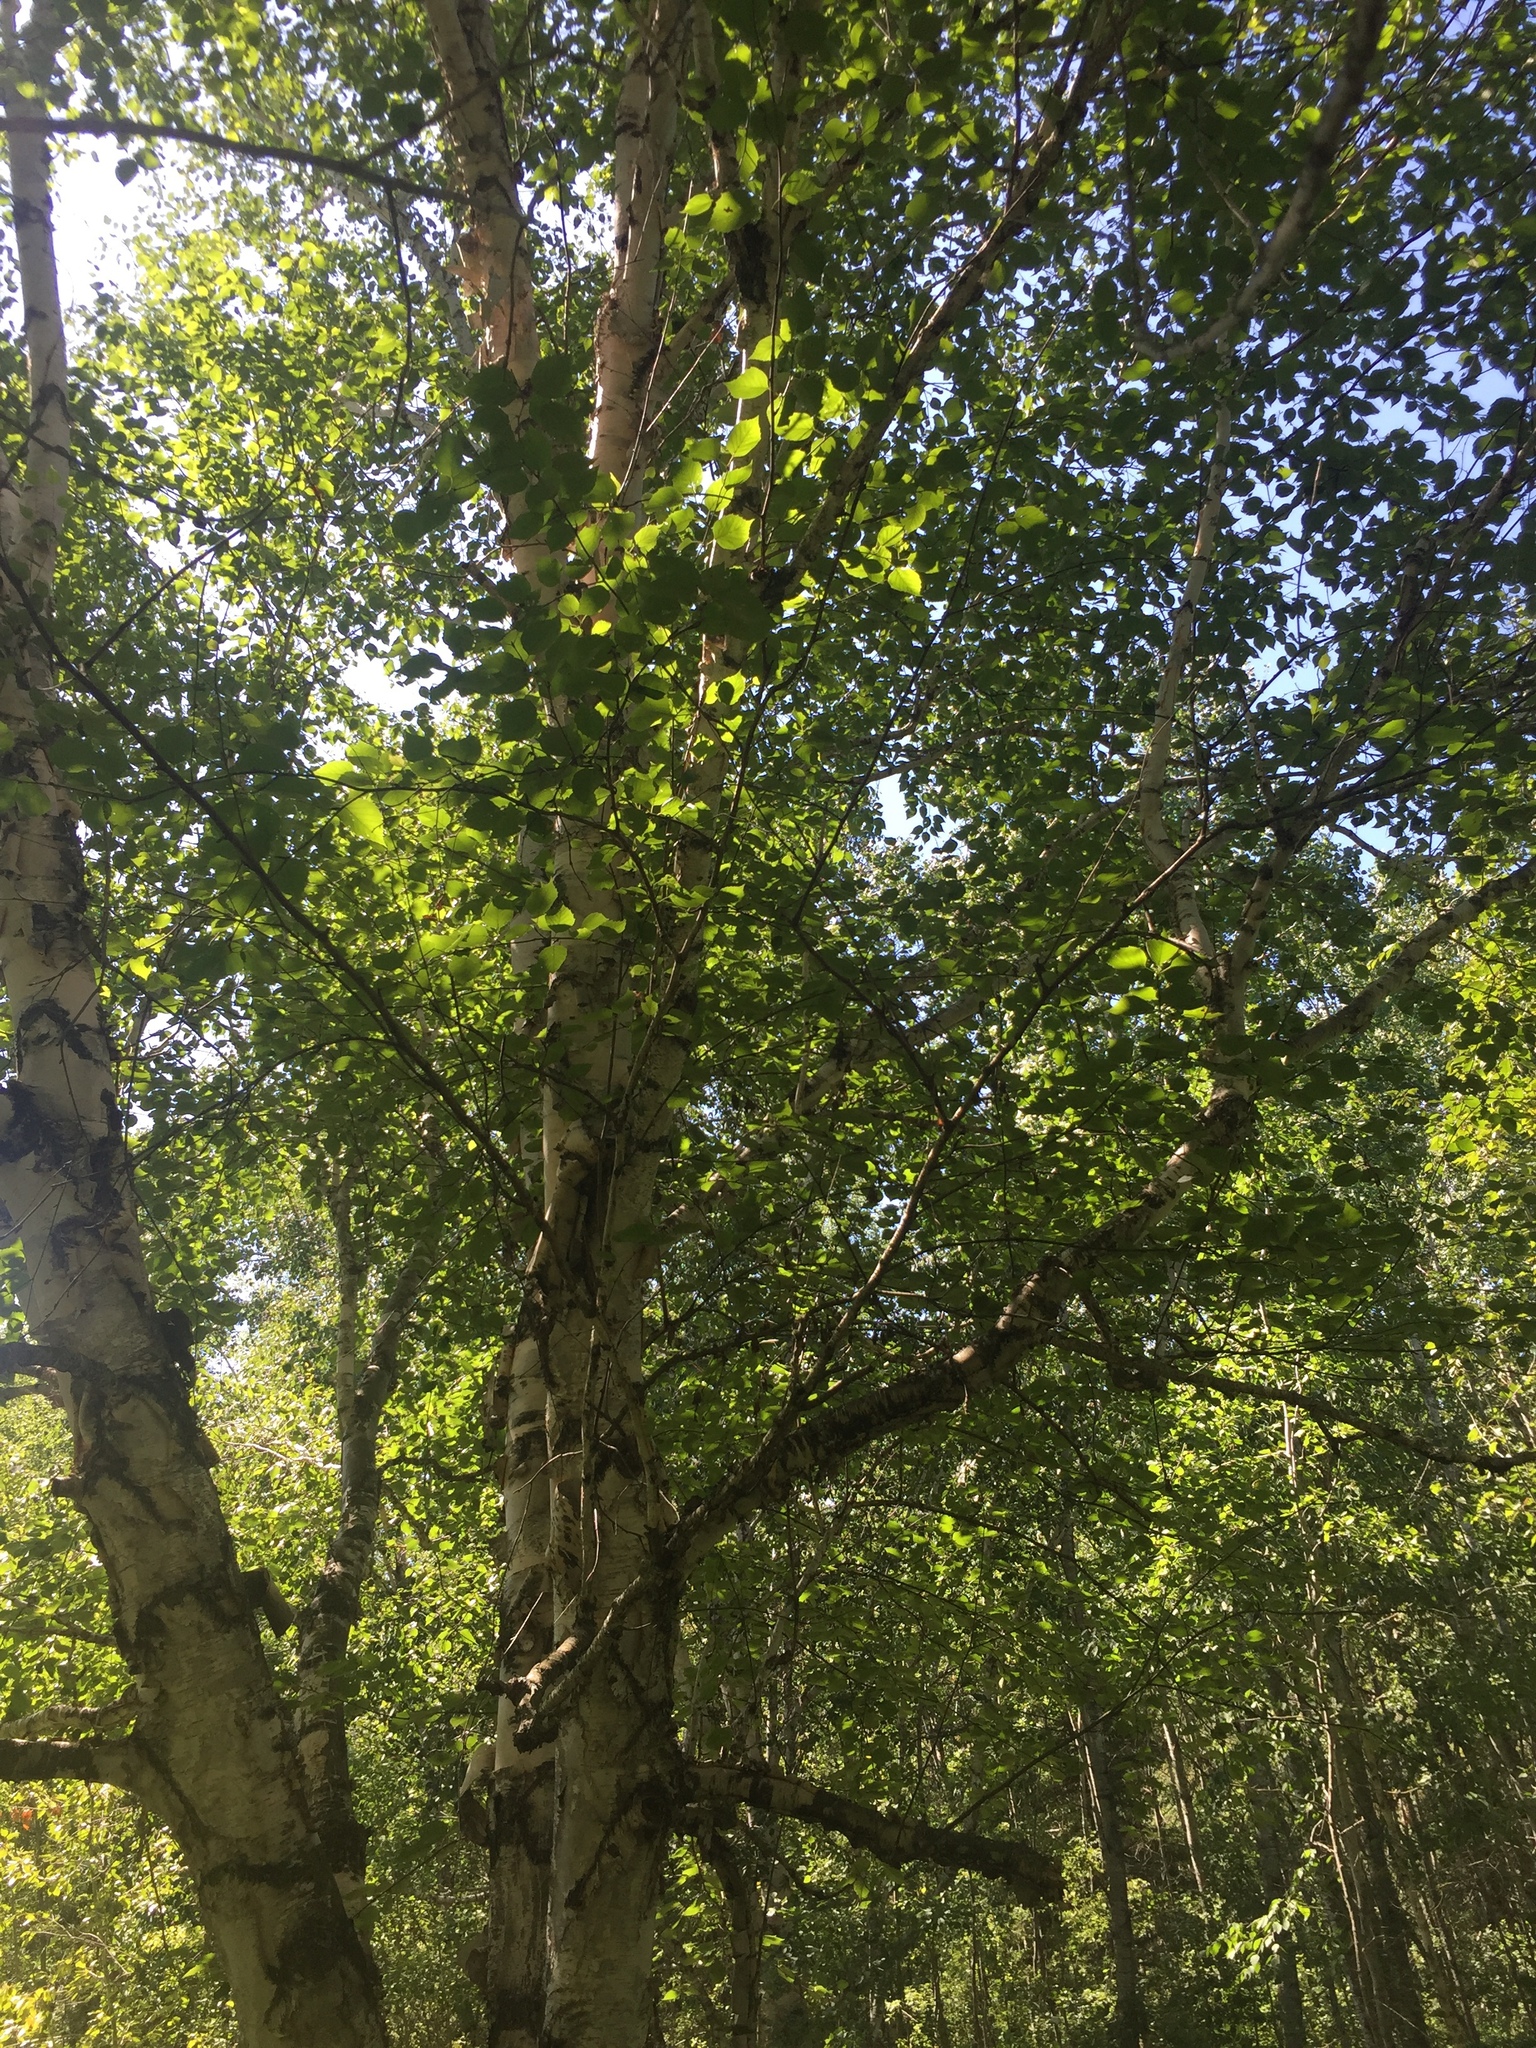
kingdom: Plantae
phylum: Tracheophyta
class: Magnoliopsida
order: Fagales
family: Betulaceae
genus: Betula
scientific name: Betula papyrifera
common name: Paper birch
